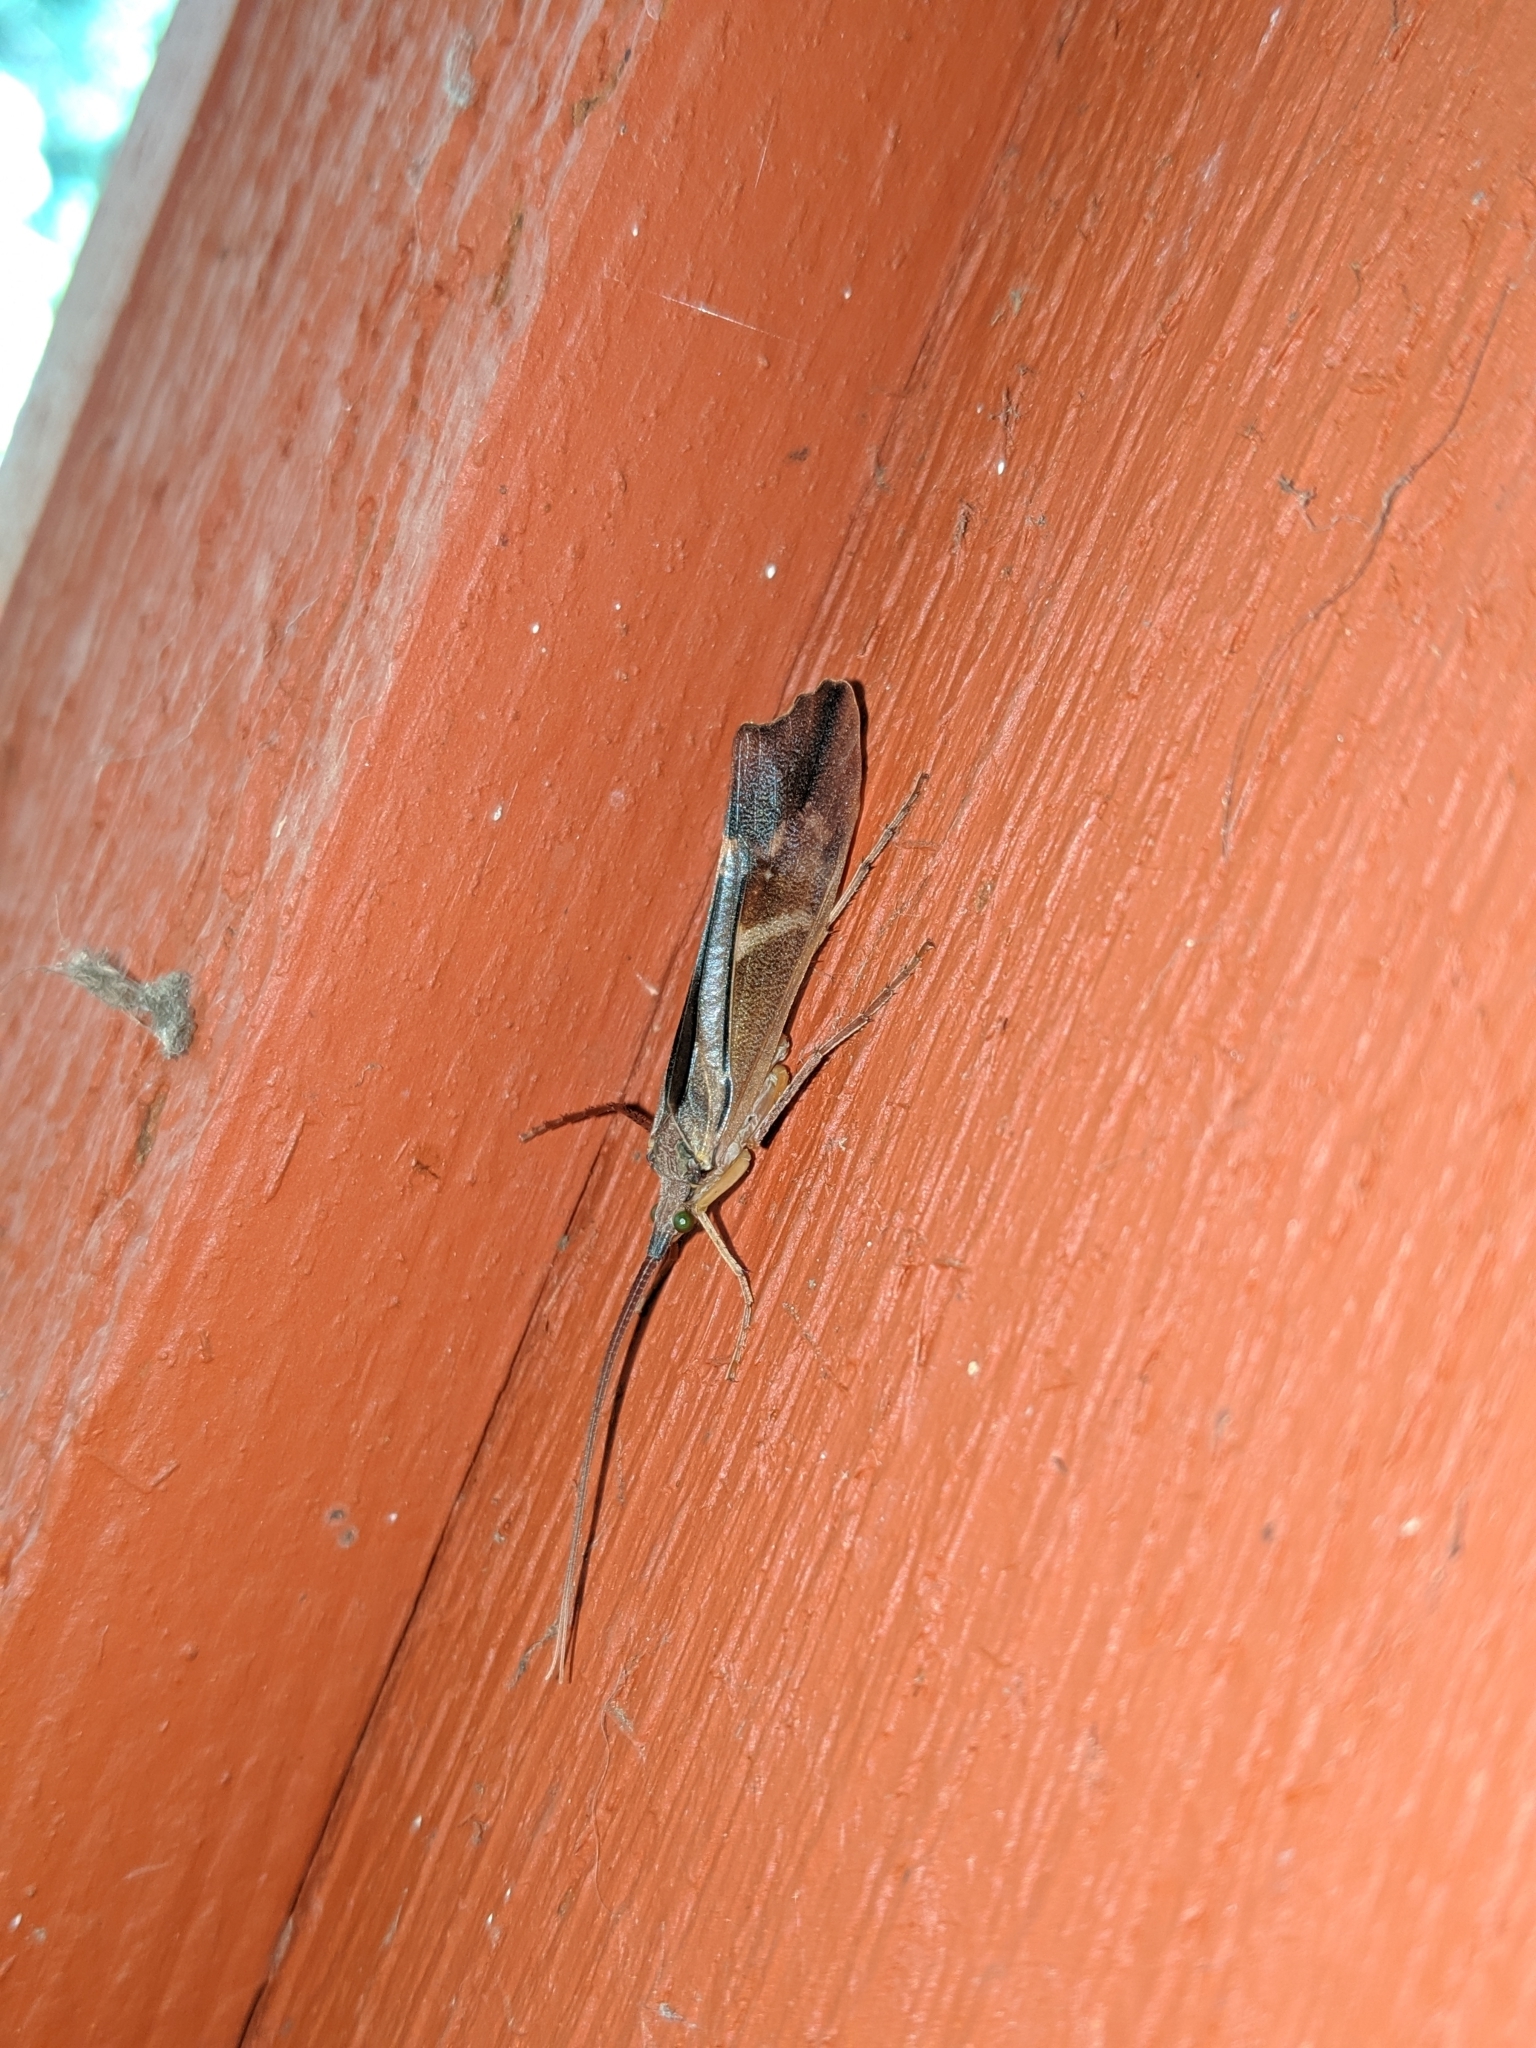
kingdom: Animalia
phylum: Arthropoda
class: Insecta
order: Trichoptera
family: Limnephilidae
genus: Nemotaulius
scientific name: Nemotaulius hostilis
